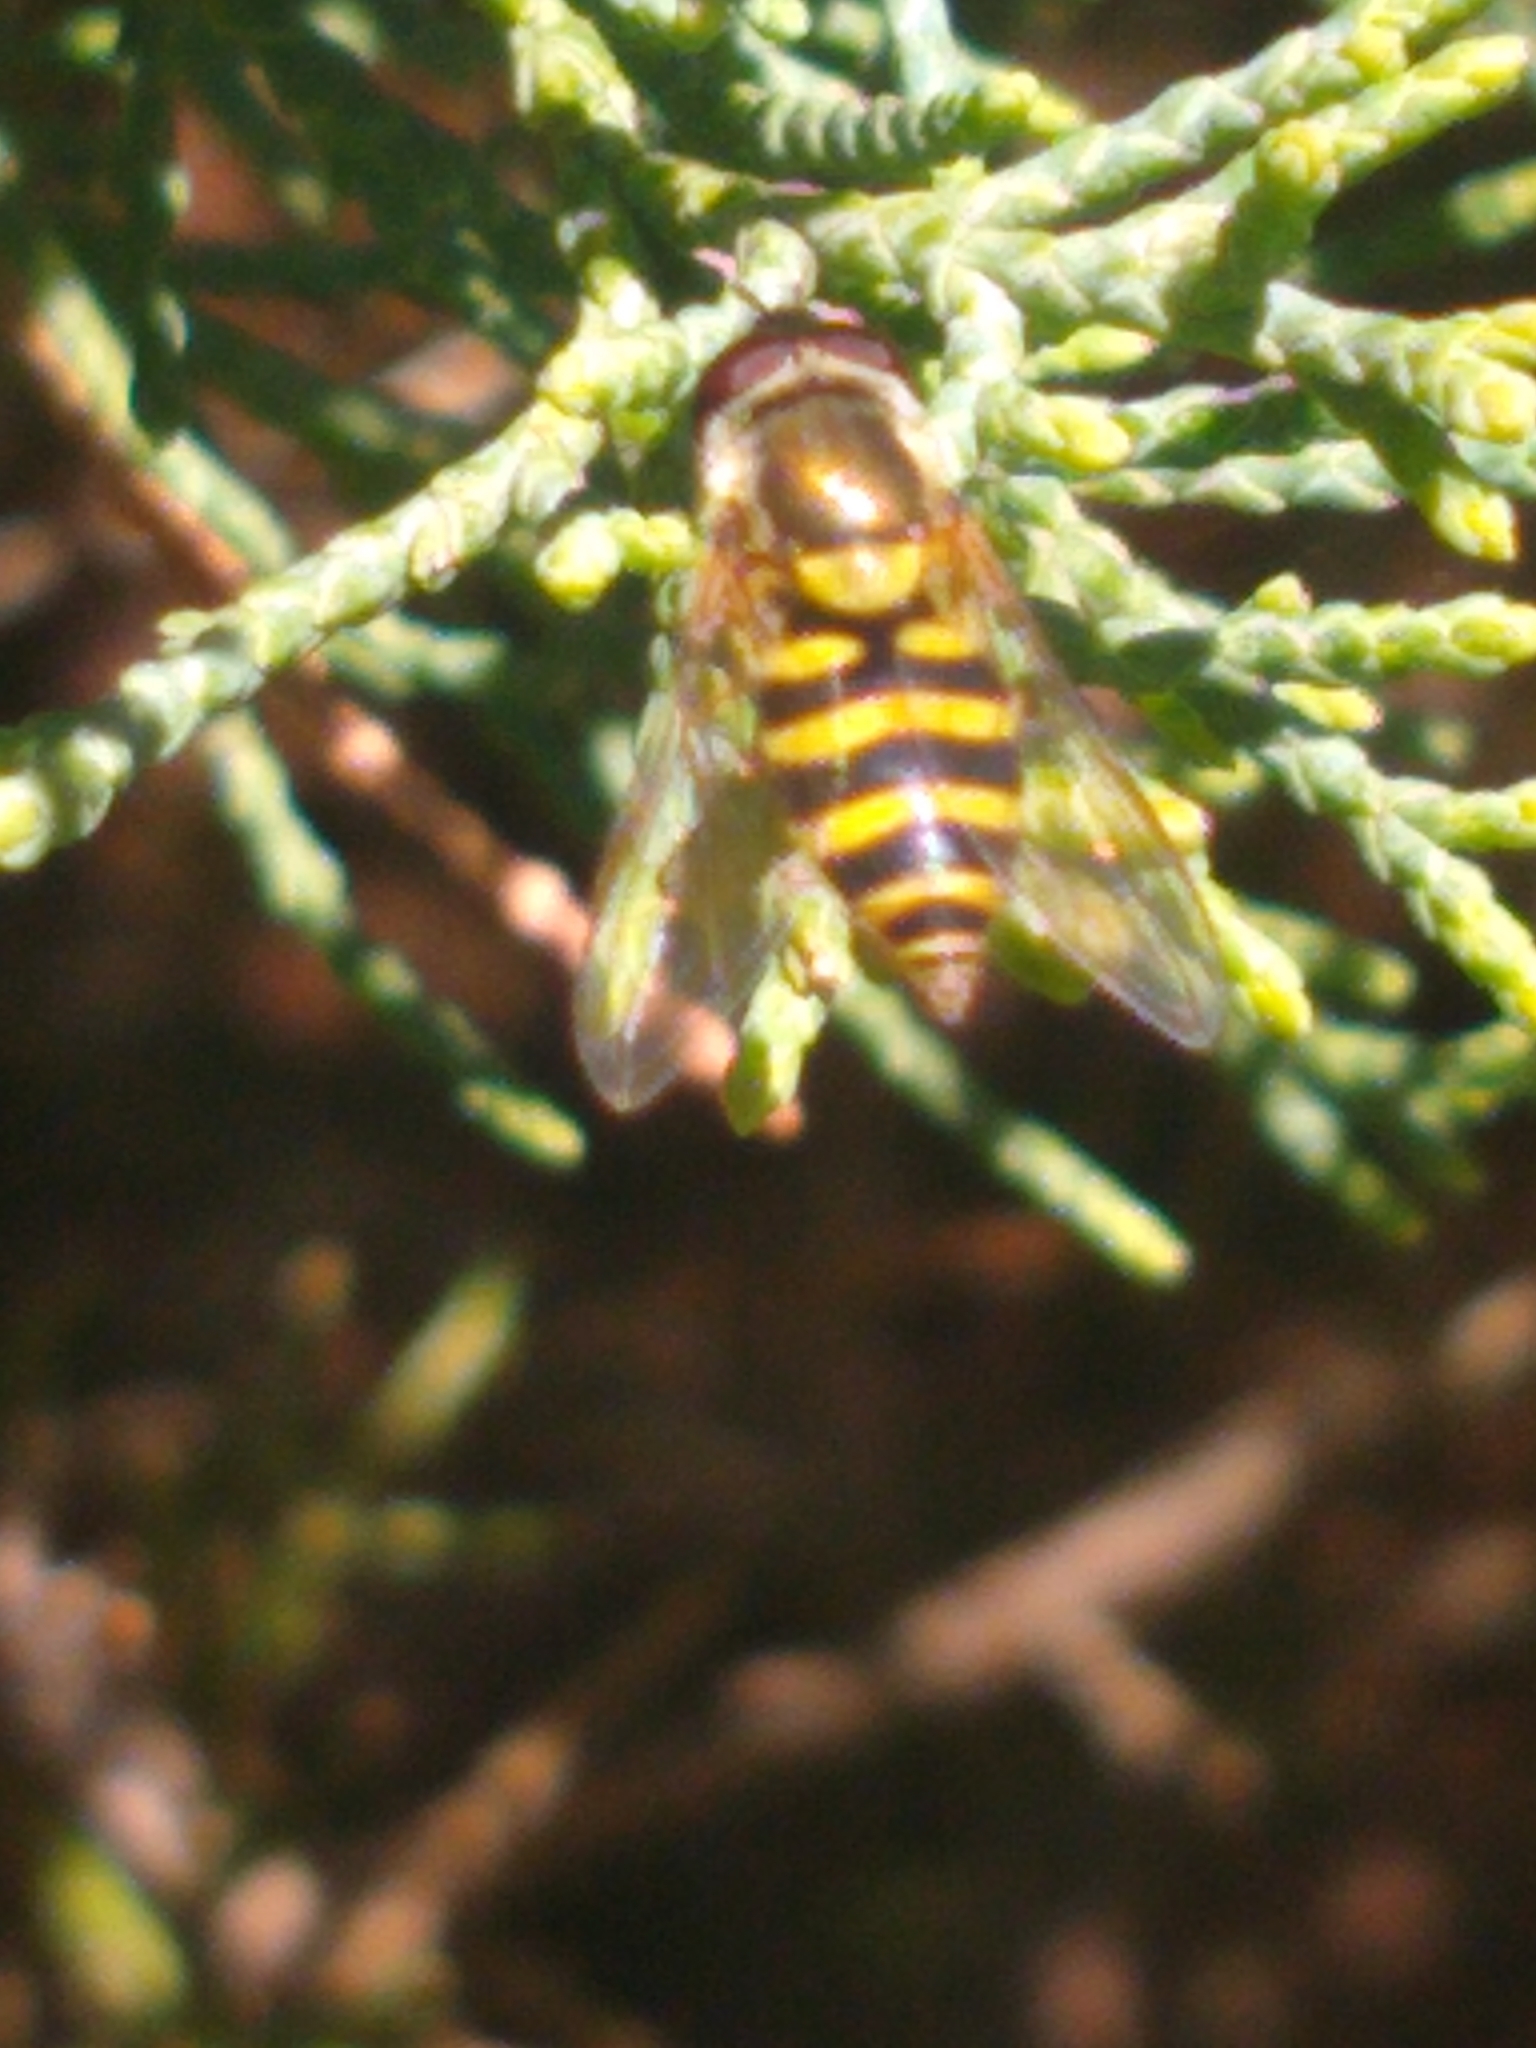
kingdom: Animalia
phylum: Arthropoda
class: Insecta
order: Diptera
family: Syrphidae
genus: Syrphus
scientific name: Syrphus
